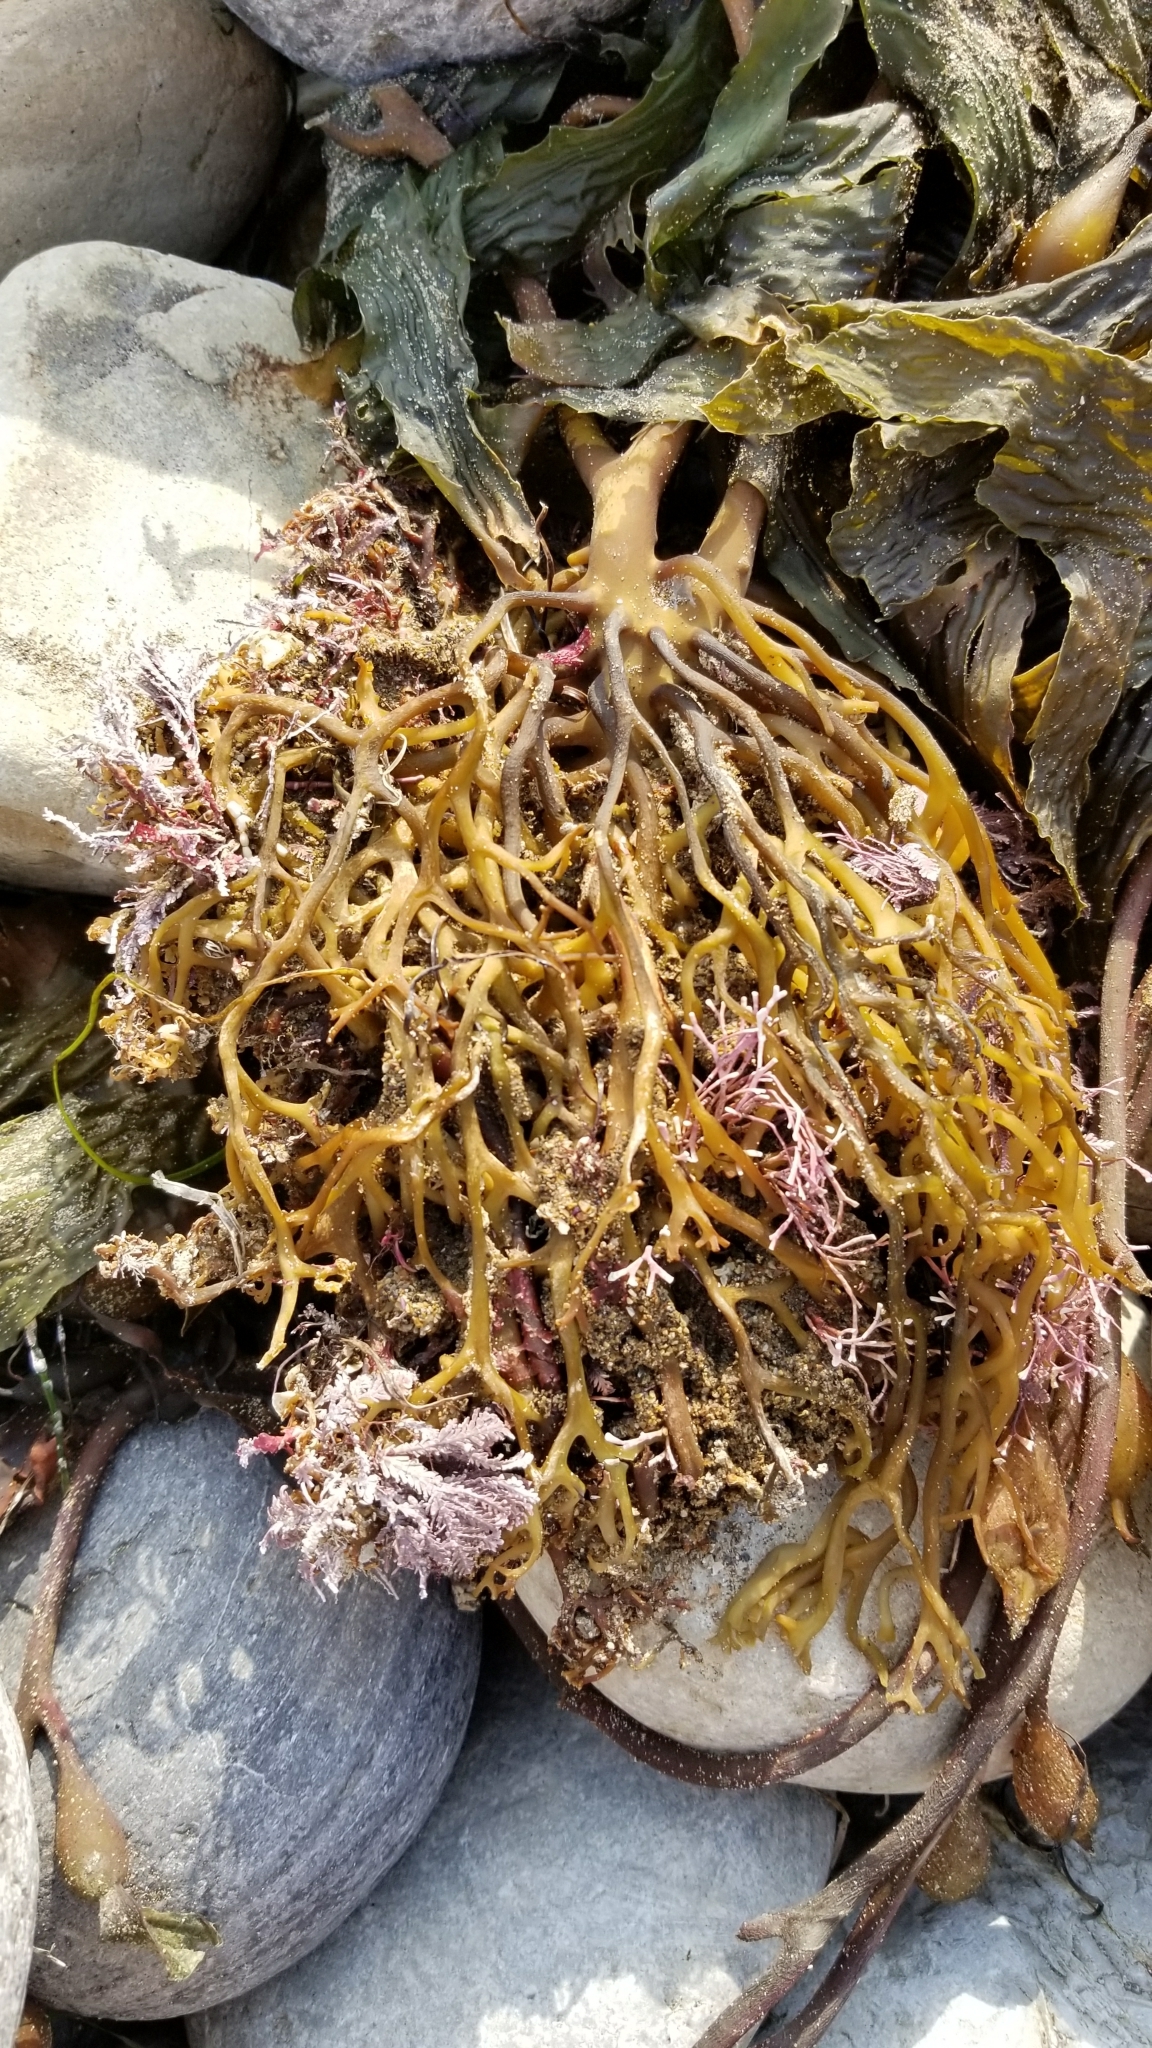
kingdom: Chromista
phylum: Ochrophyta
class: Phaeophyceae
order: Laminariales
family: Laminariaceae
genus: Macrocystis
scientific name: Macrocystis pyrifera
